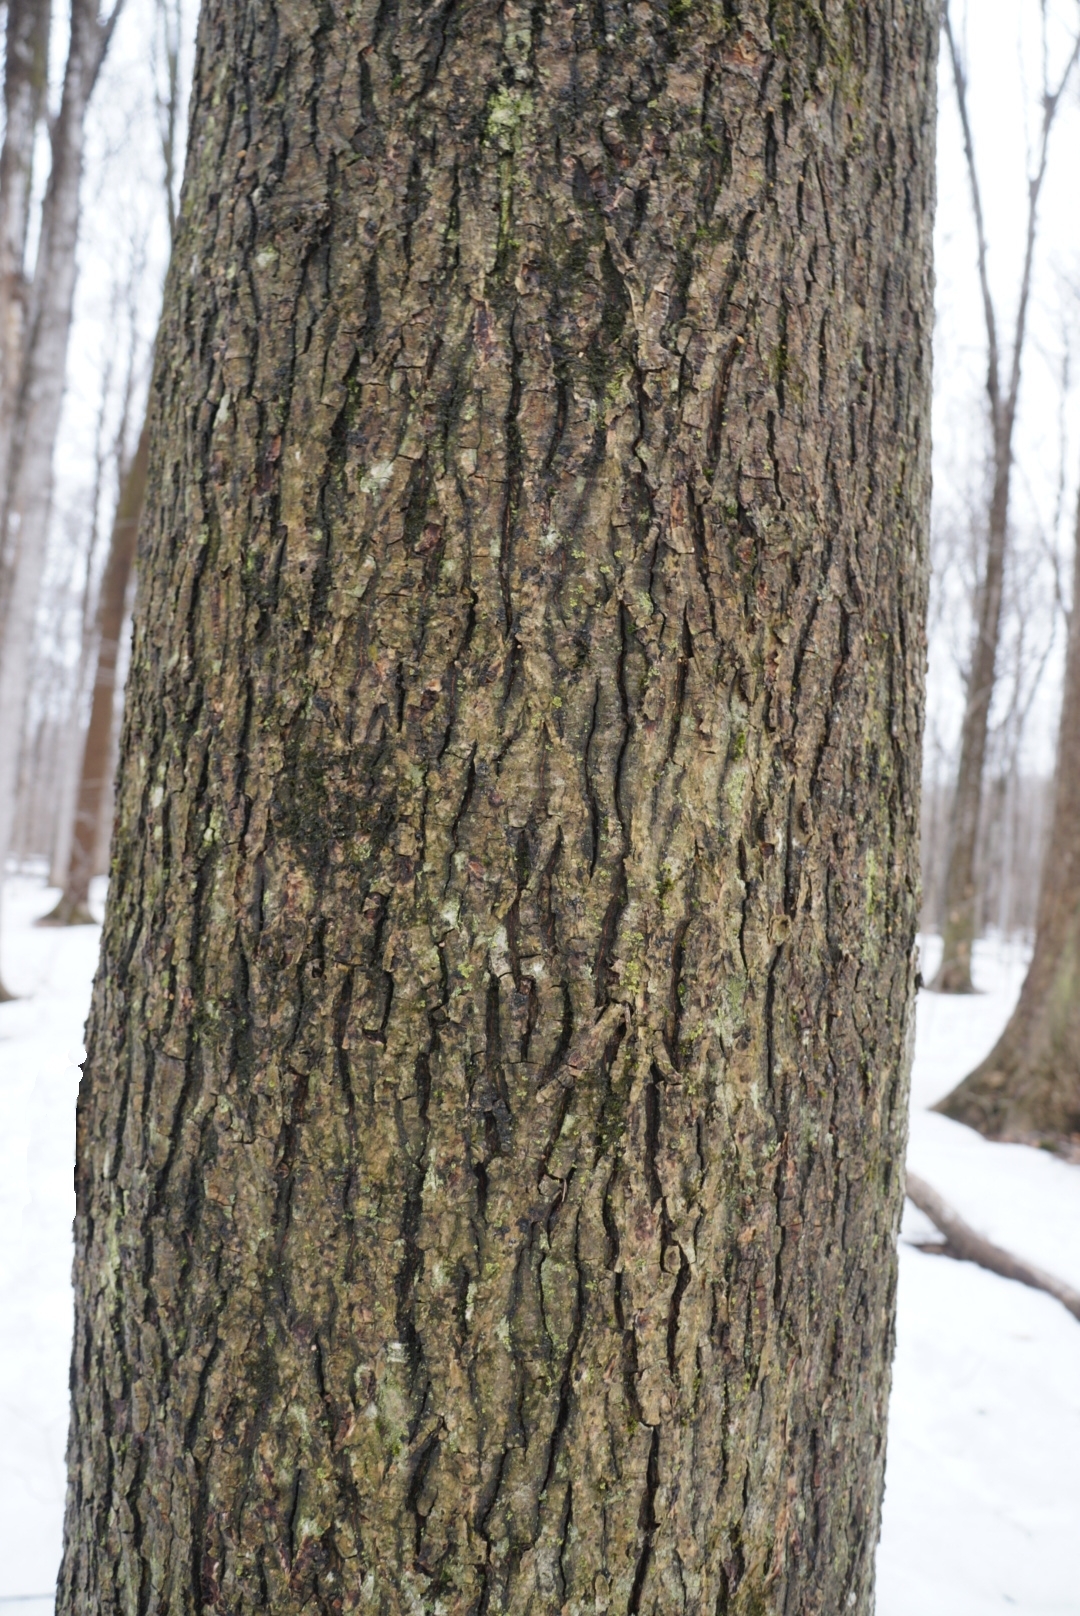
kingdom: Plantae
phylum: Tracheophyta
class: Magnoliopsida
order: Fagales
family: Juglandaceae
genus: Carya
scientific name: Carya cordiformis
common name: Bitternut hickory
